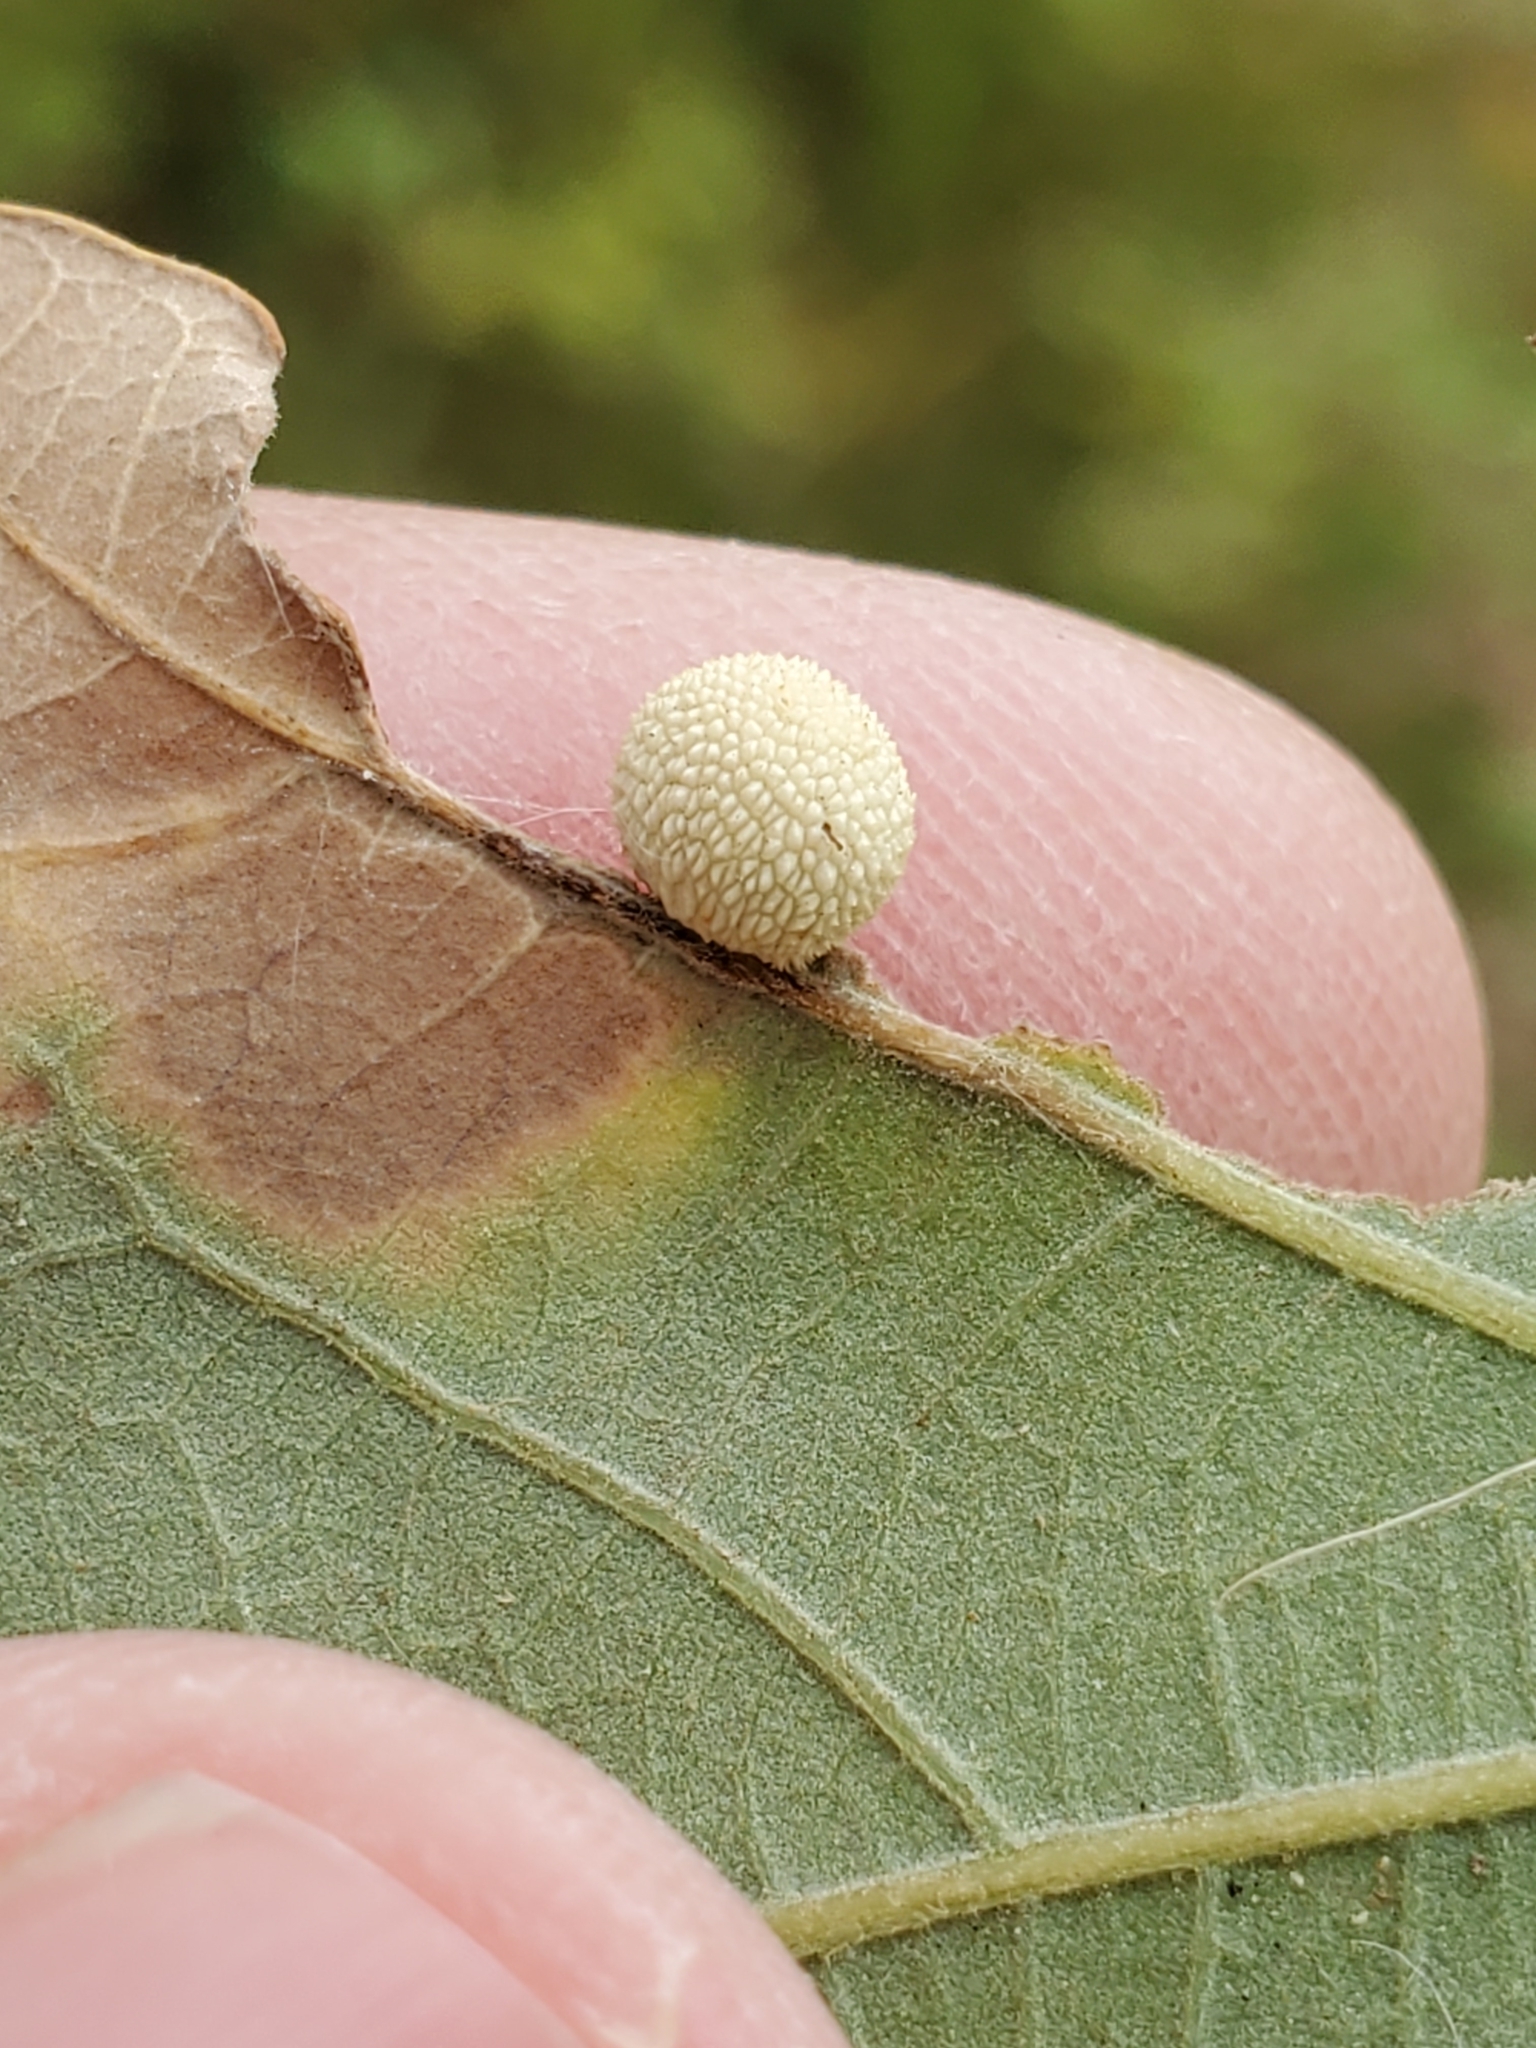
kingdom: Animalia
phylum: Arthropoda
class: Insecta
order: Hymenoptera
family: Cynipidae
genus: Acraspis
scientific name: Acraspis quercushirta
